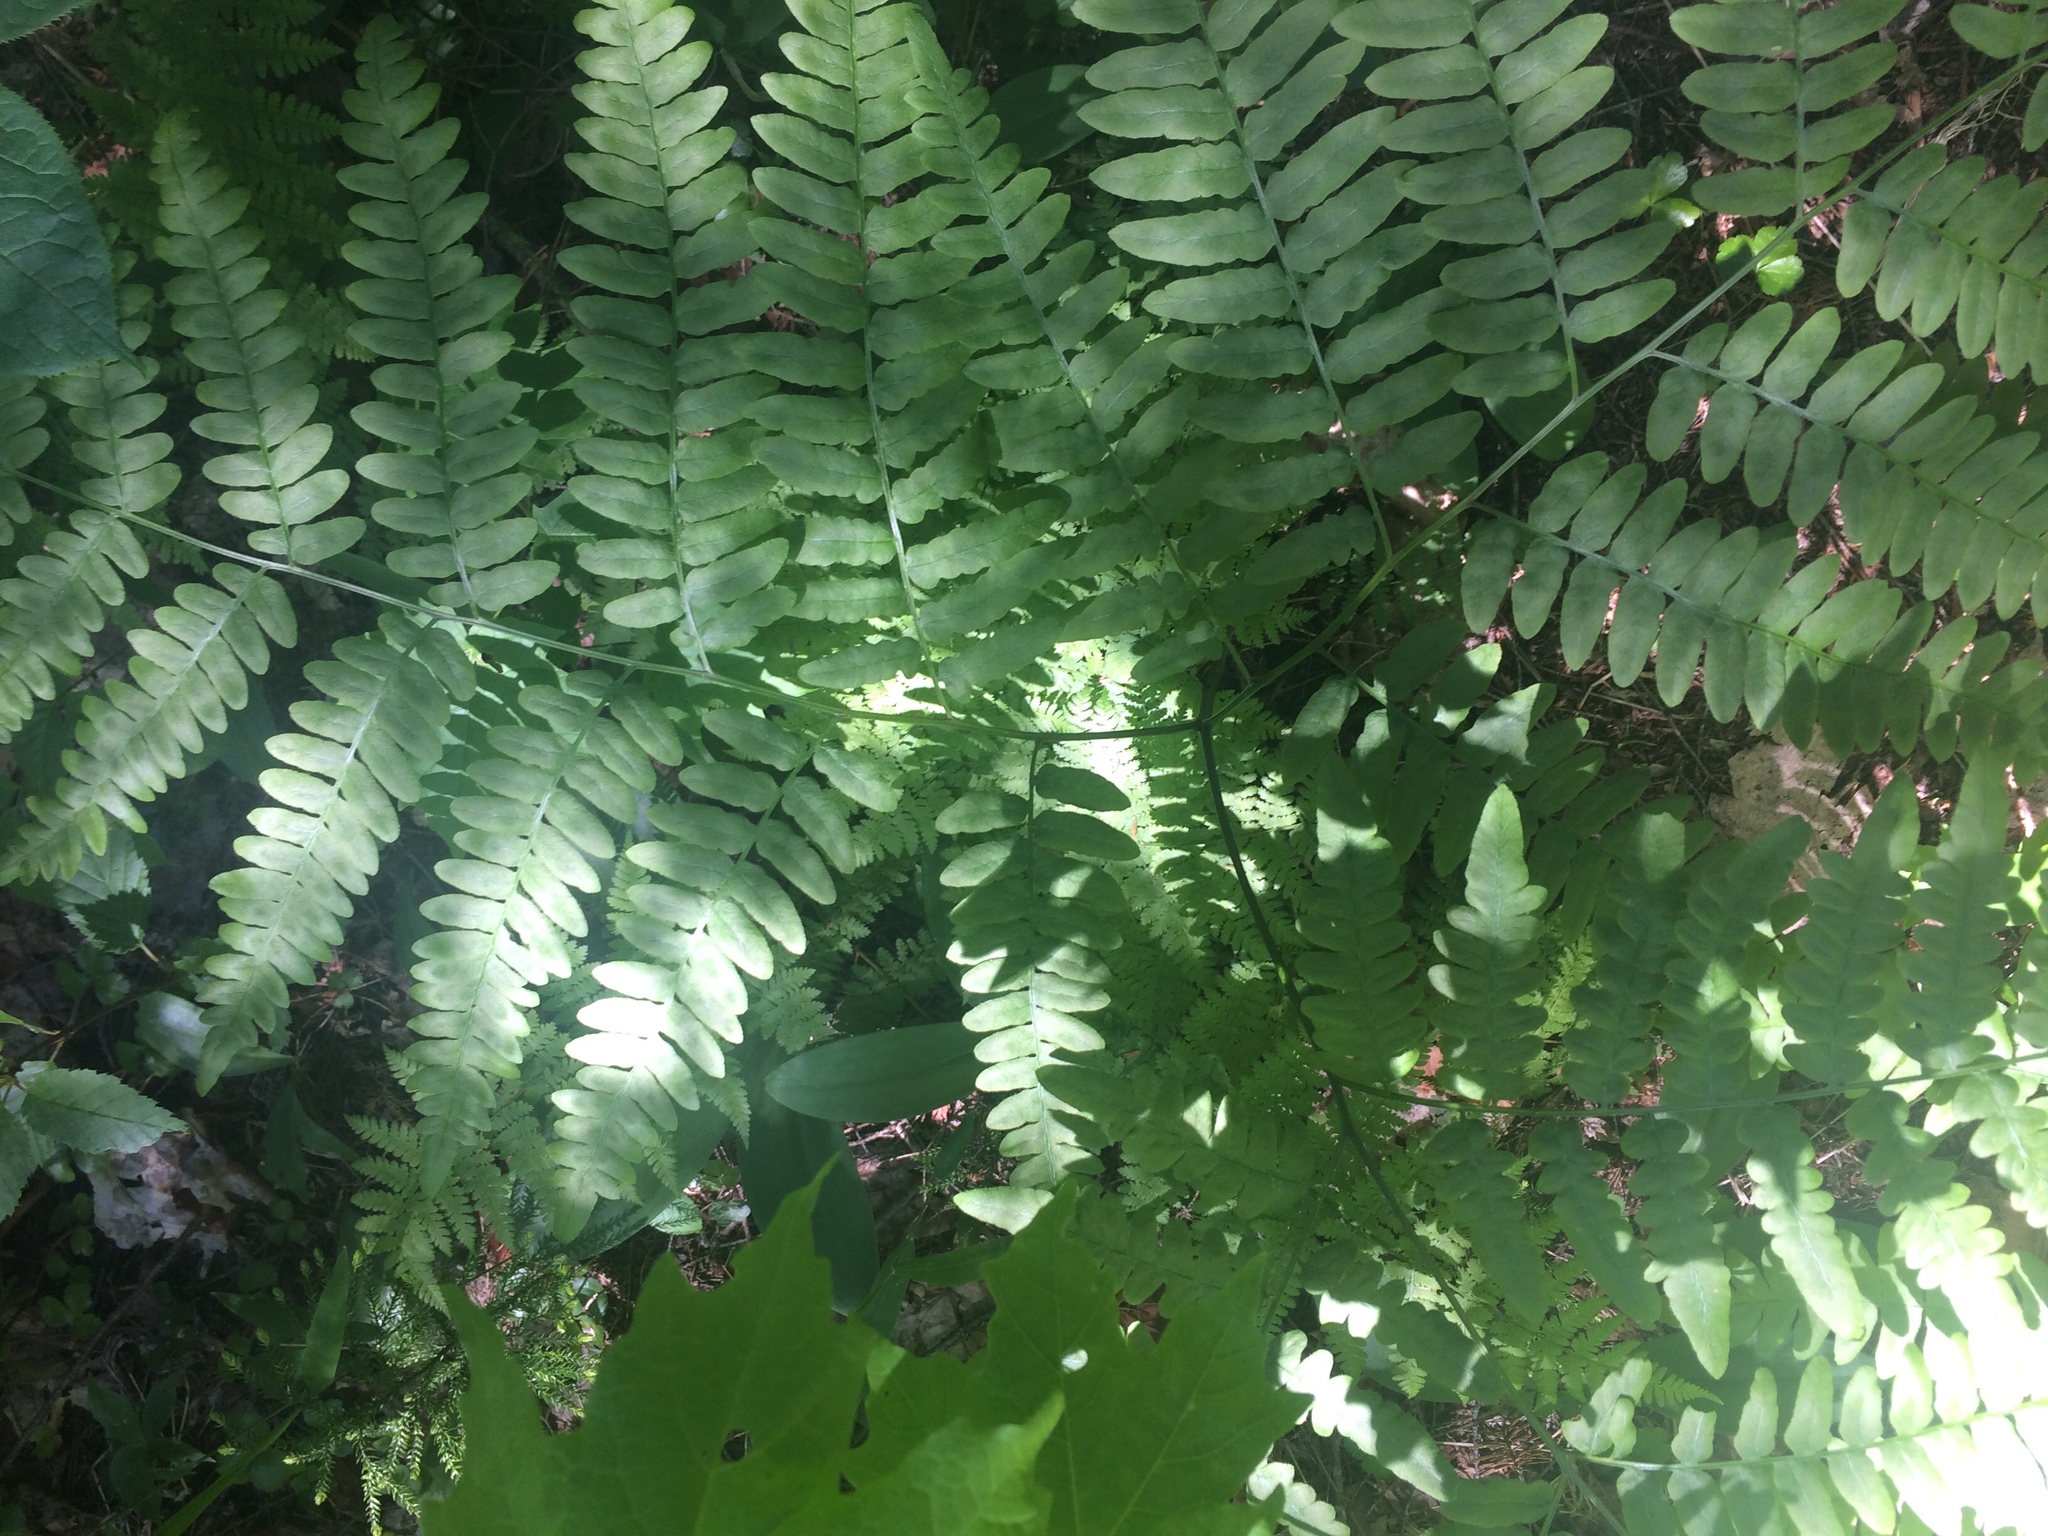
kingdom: Plantae
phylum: Tracheophyta
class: Polypodiopsida
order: Polypodiales
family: Dennstaedtiaceae
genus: Pteridium
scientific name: Pteridium aquilinum
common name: Bracken
